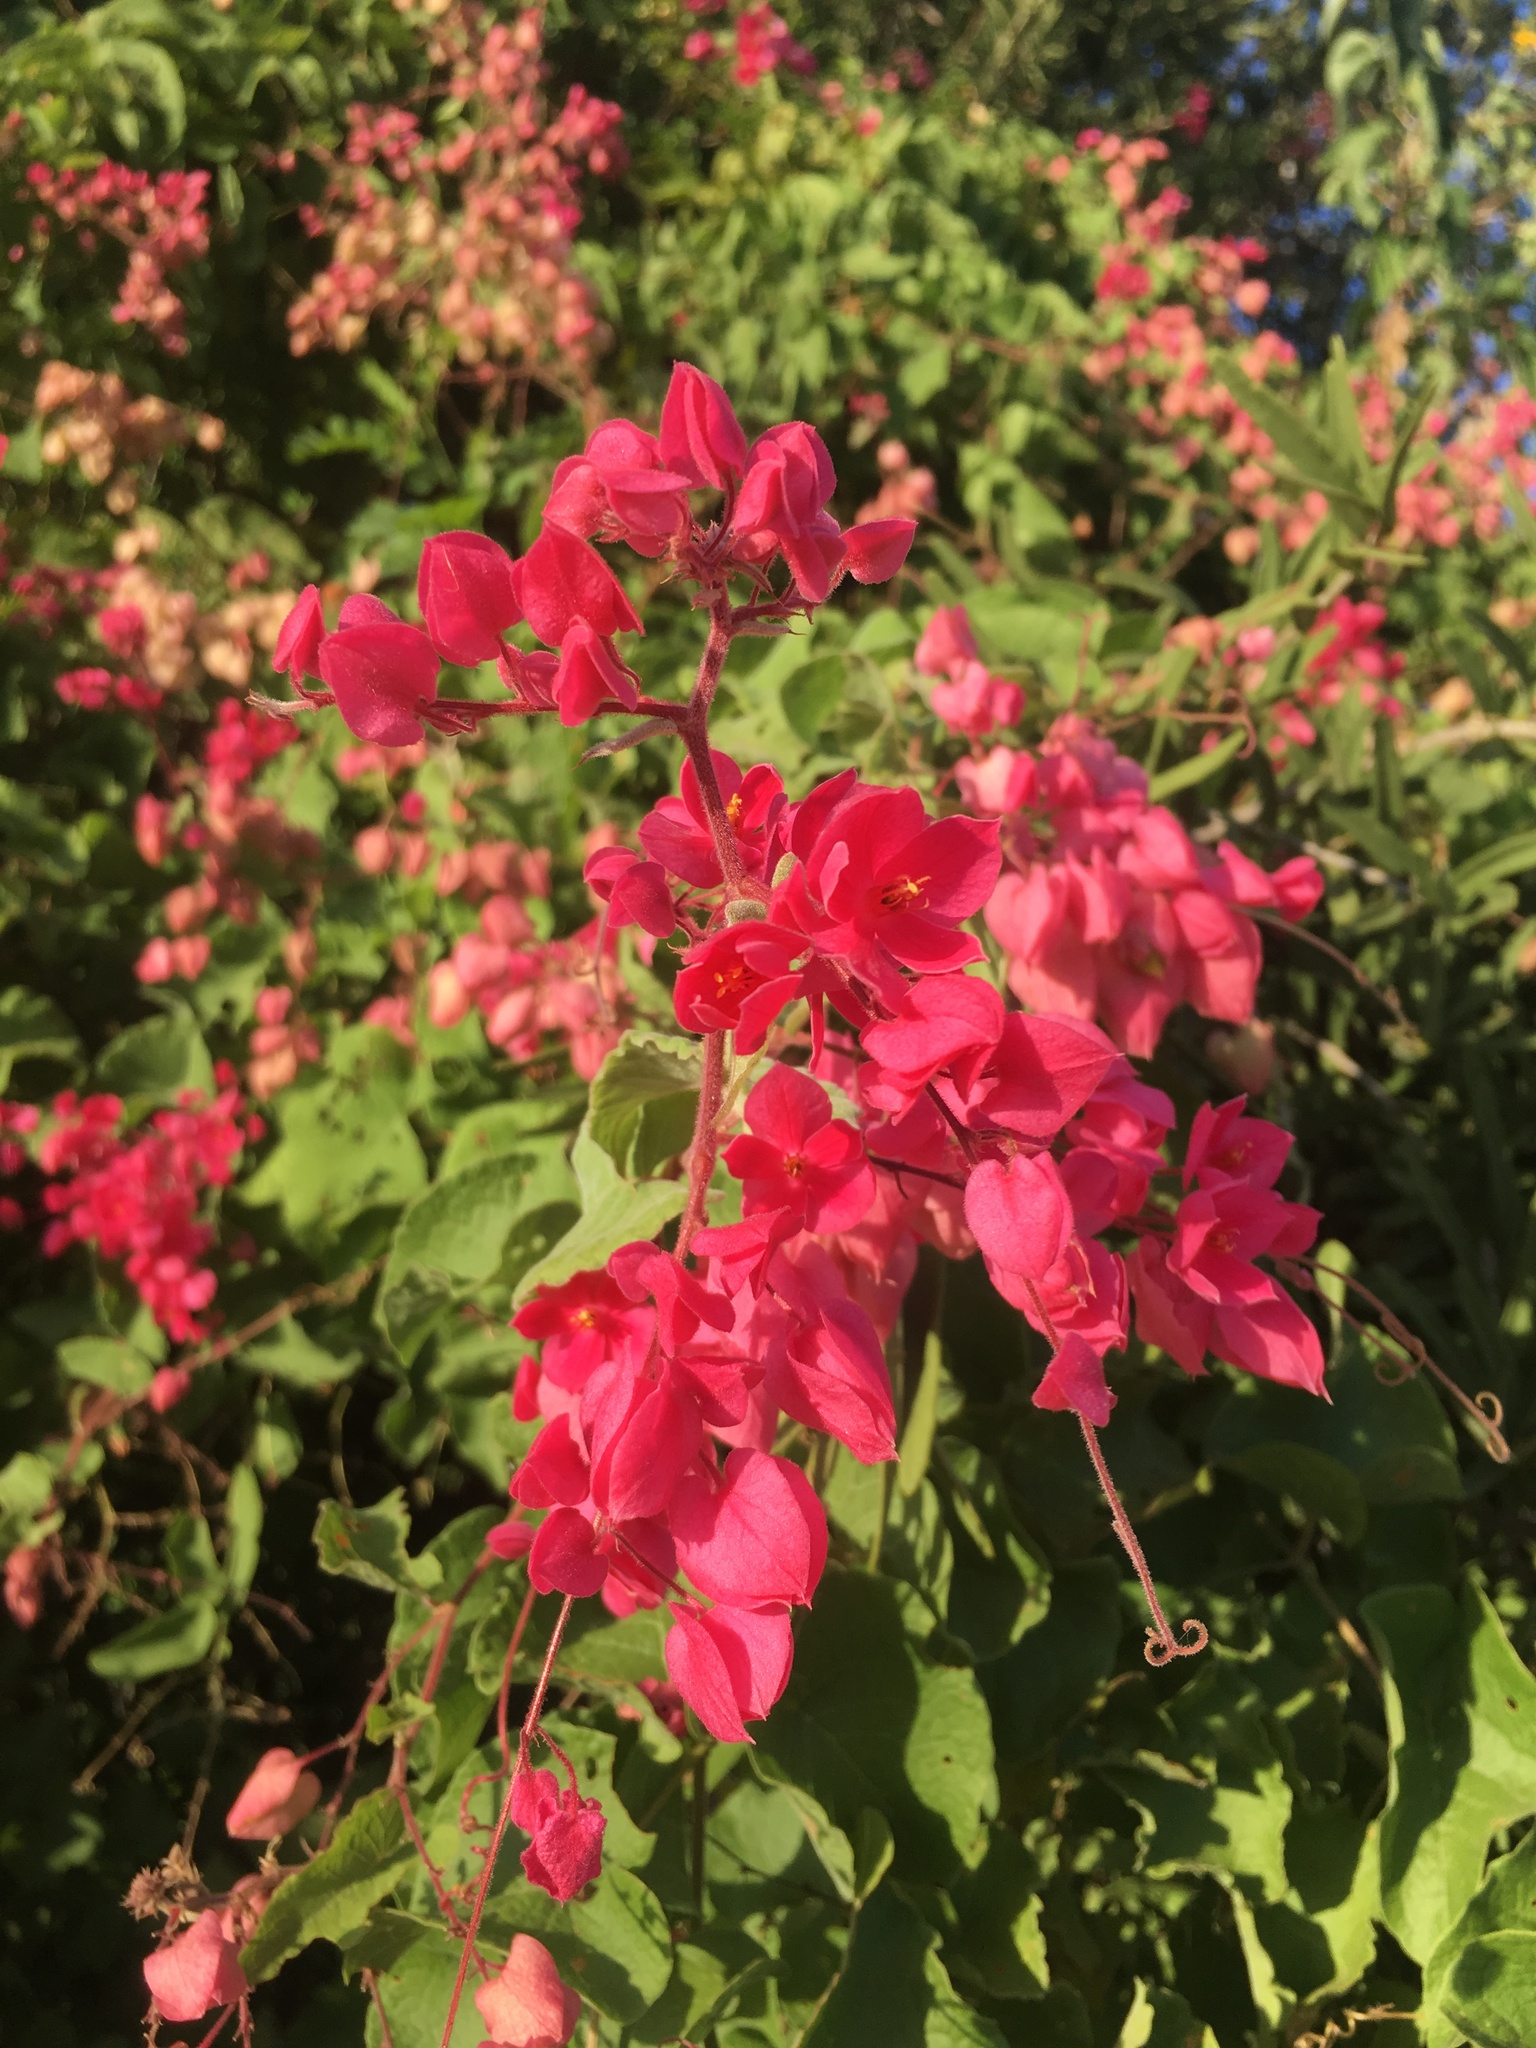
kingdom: Plantae
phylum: Tracheophyta
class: Magnoliopsida
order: Caryophyllales
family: Polygonaceae
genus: Antigonon
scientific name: Antigonon leptopus
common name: Coral vine
